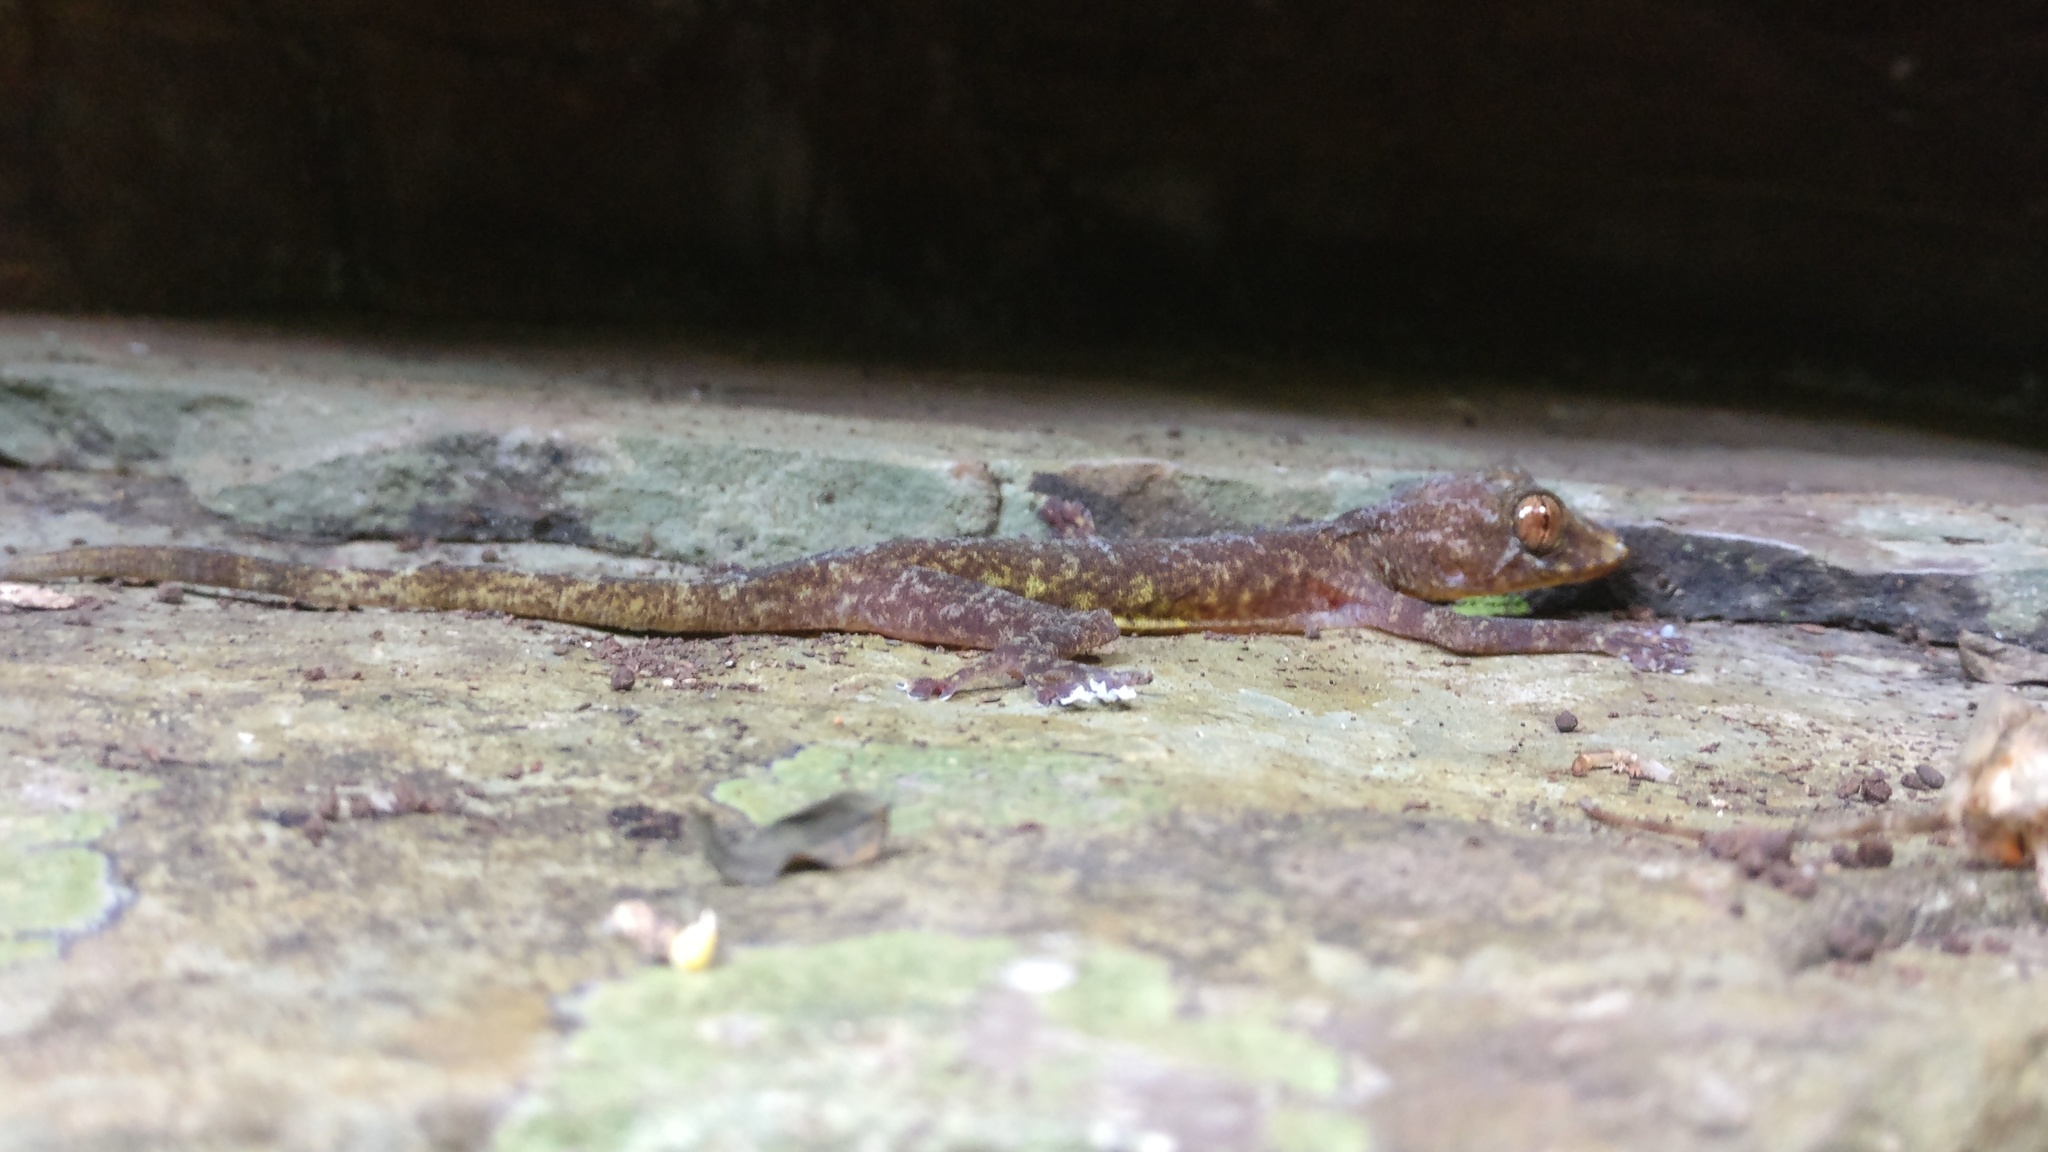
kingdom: Animalia
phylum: Chordata
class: Squamata
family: Gekkonidae
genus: Calodactylodes
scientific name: Calodactylodes aureus
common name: Indian golden gecko
